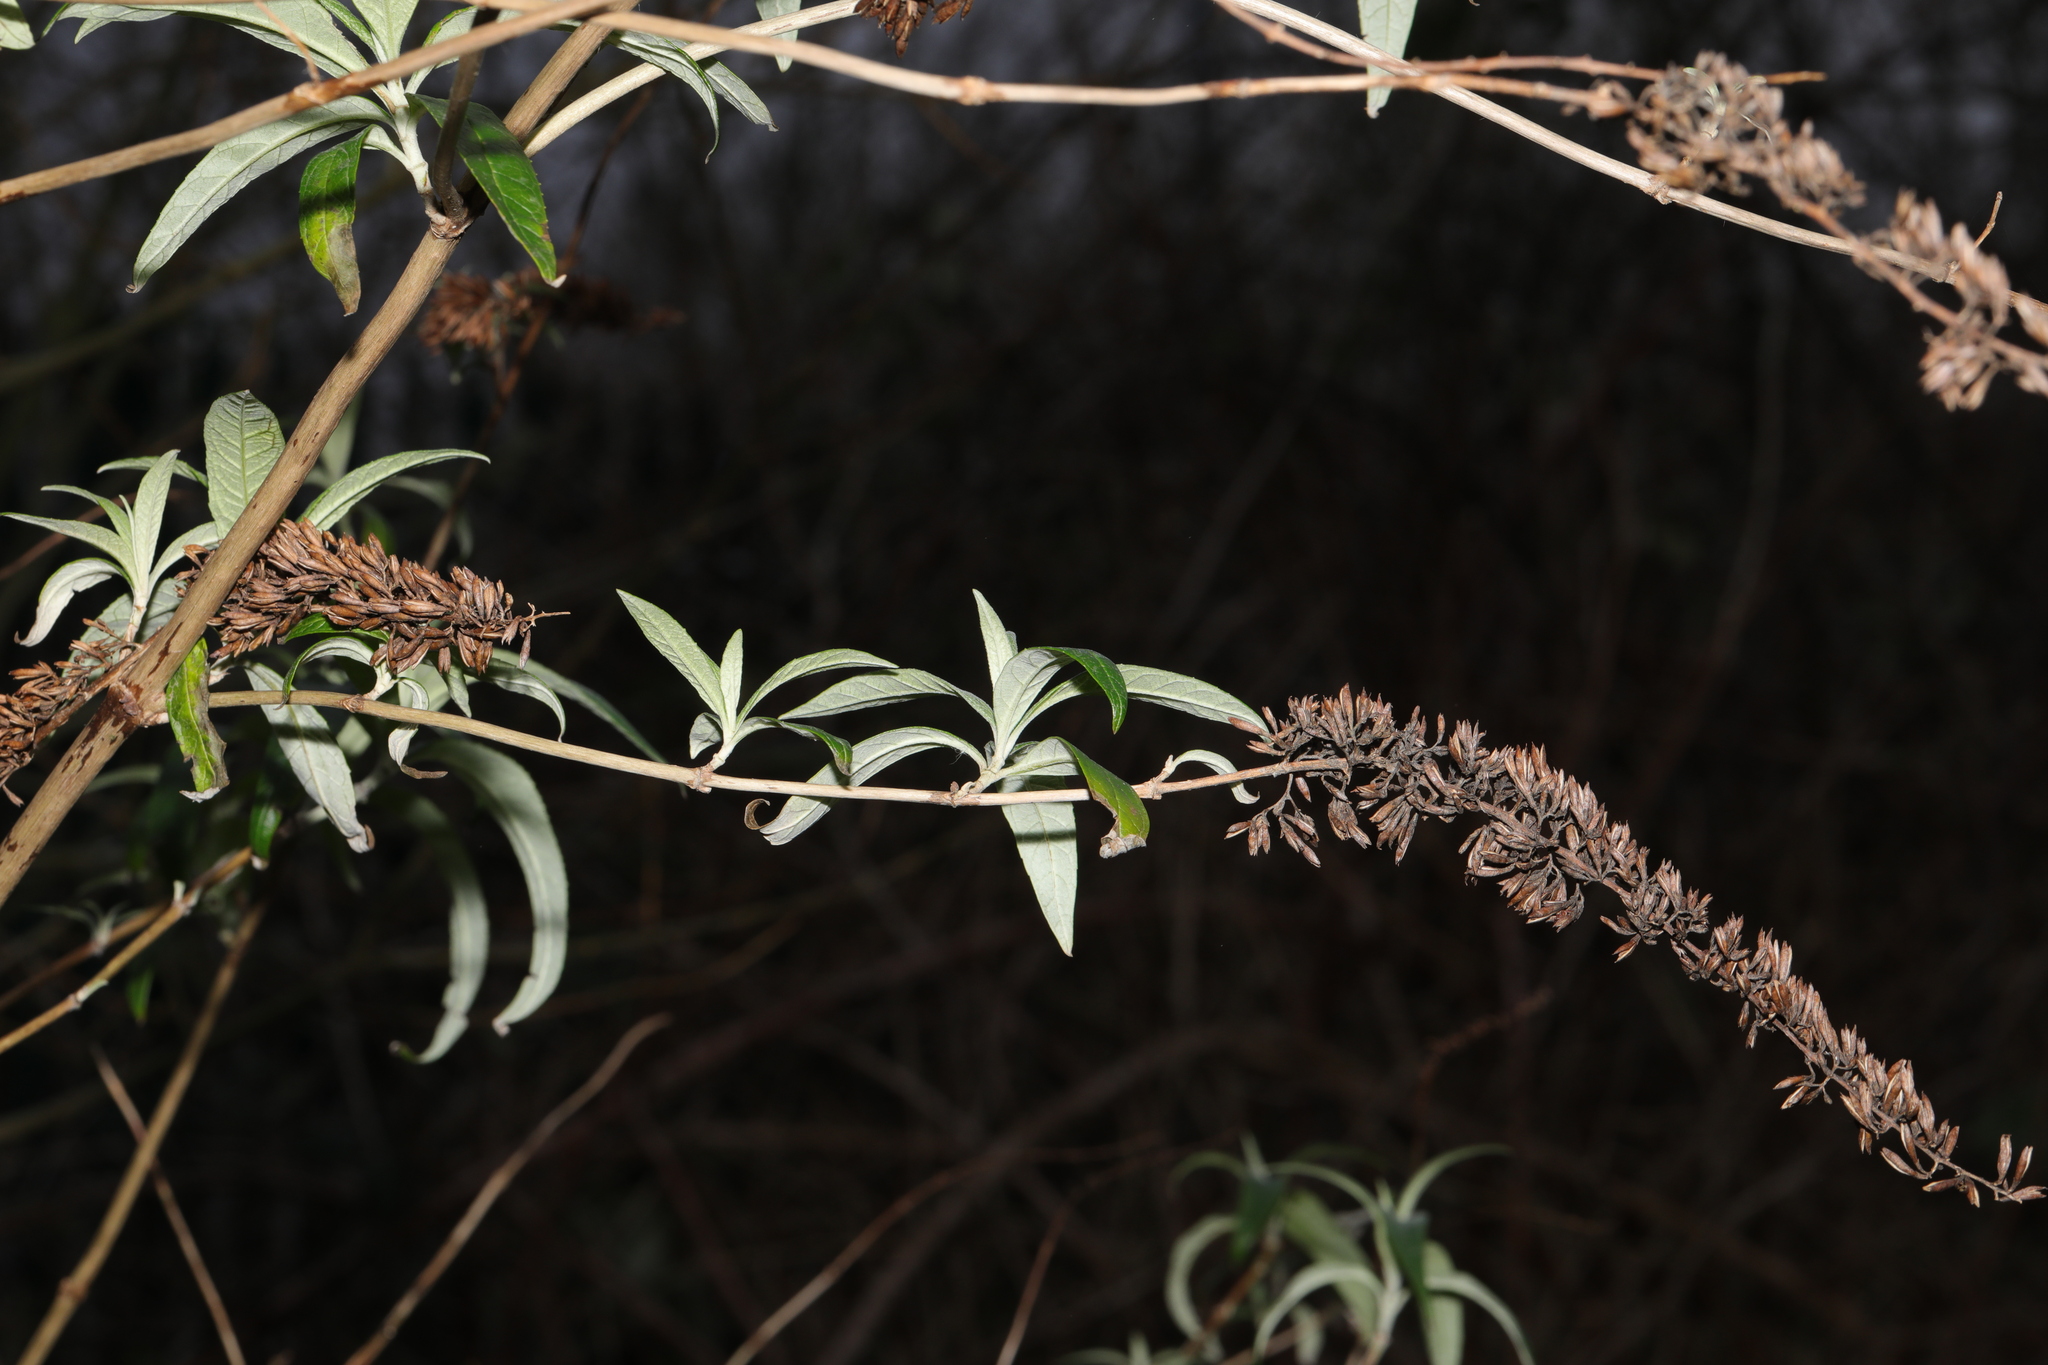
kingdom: Plantae
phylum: Tracheophyta
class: Magnoliopsida
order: Lamiales
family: Scrophulariaceae
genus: Buddleja
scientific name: Buddleja davidii
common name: Butterfly-bush
